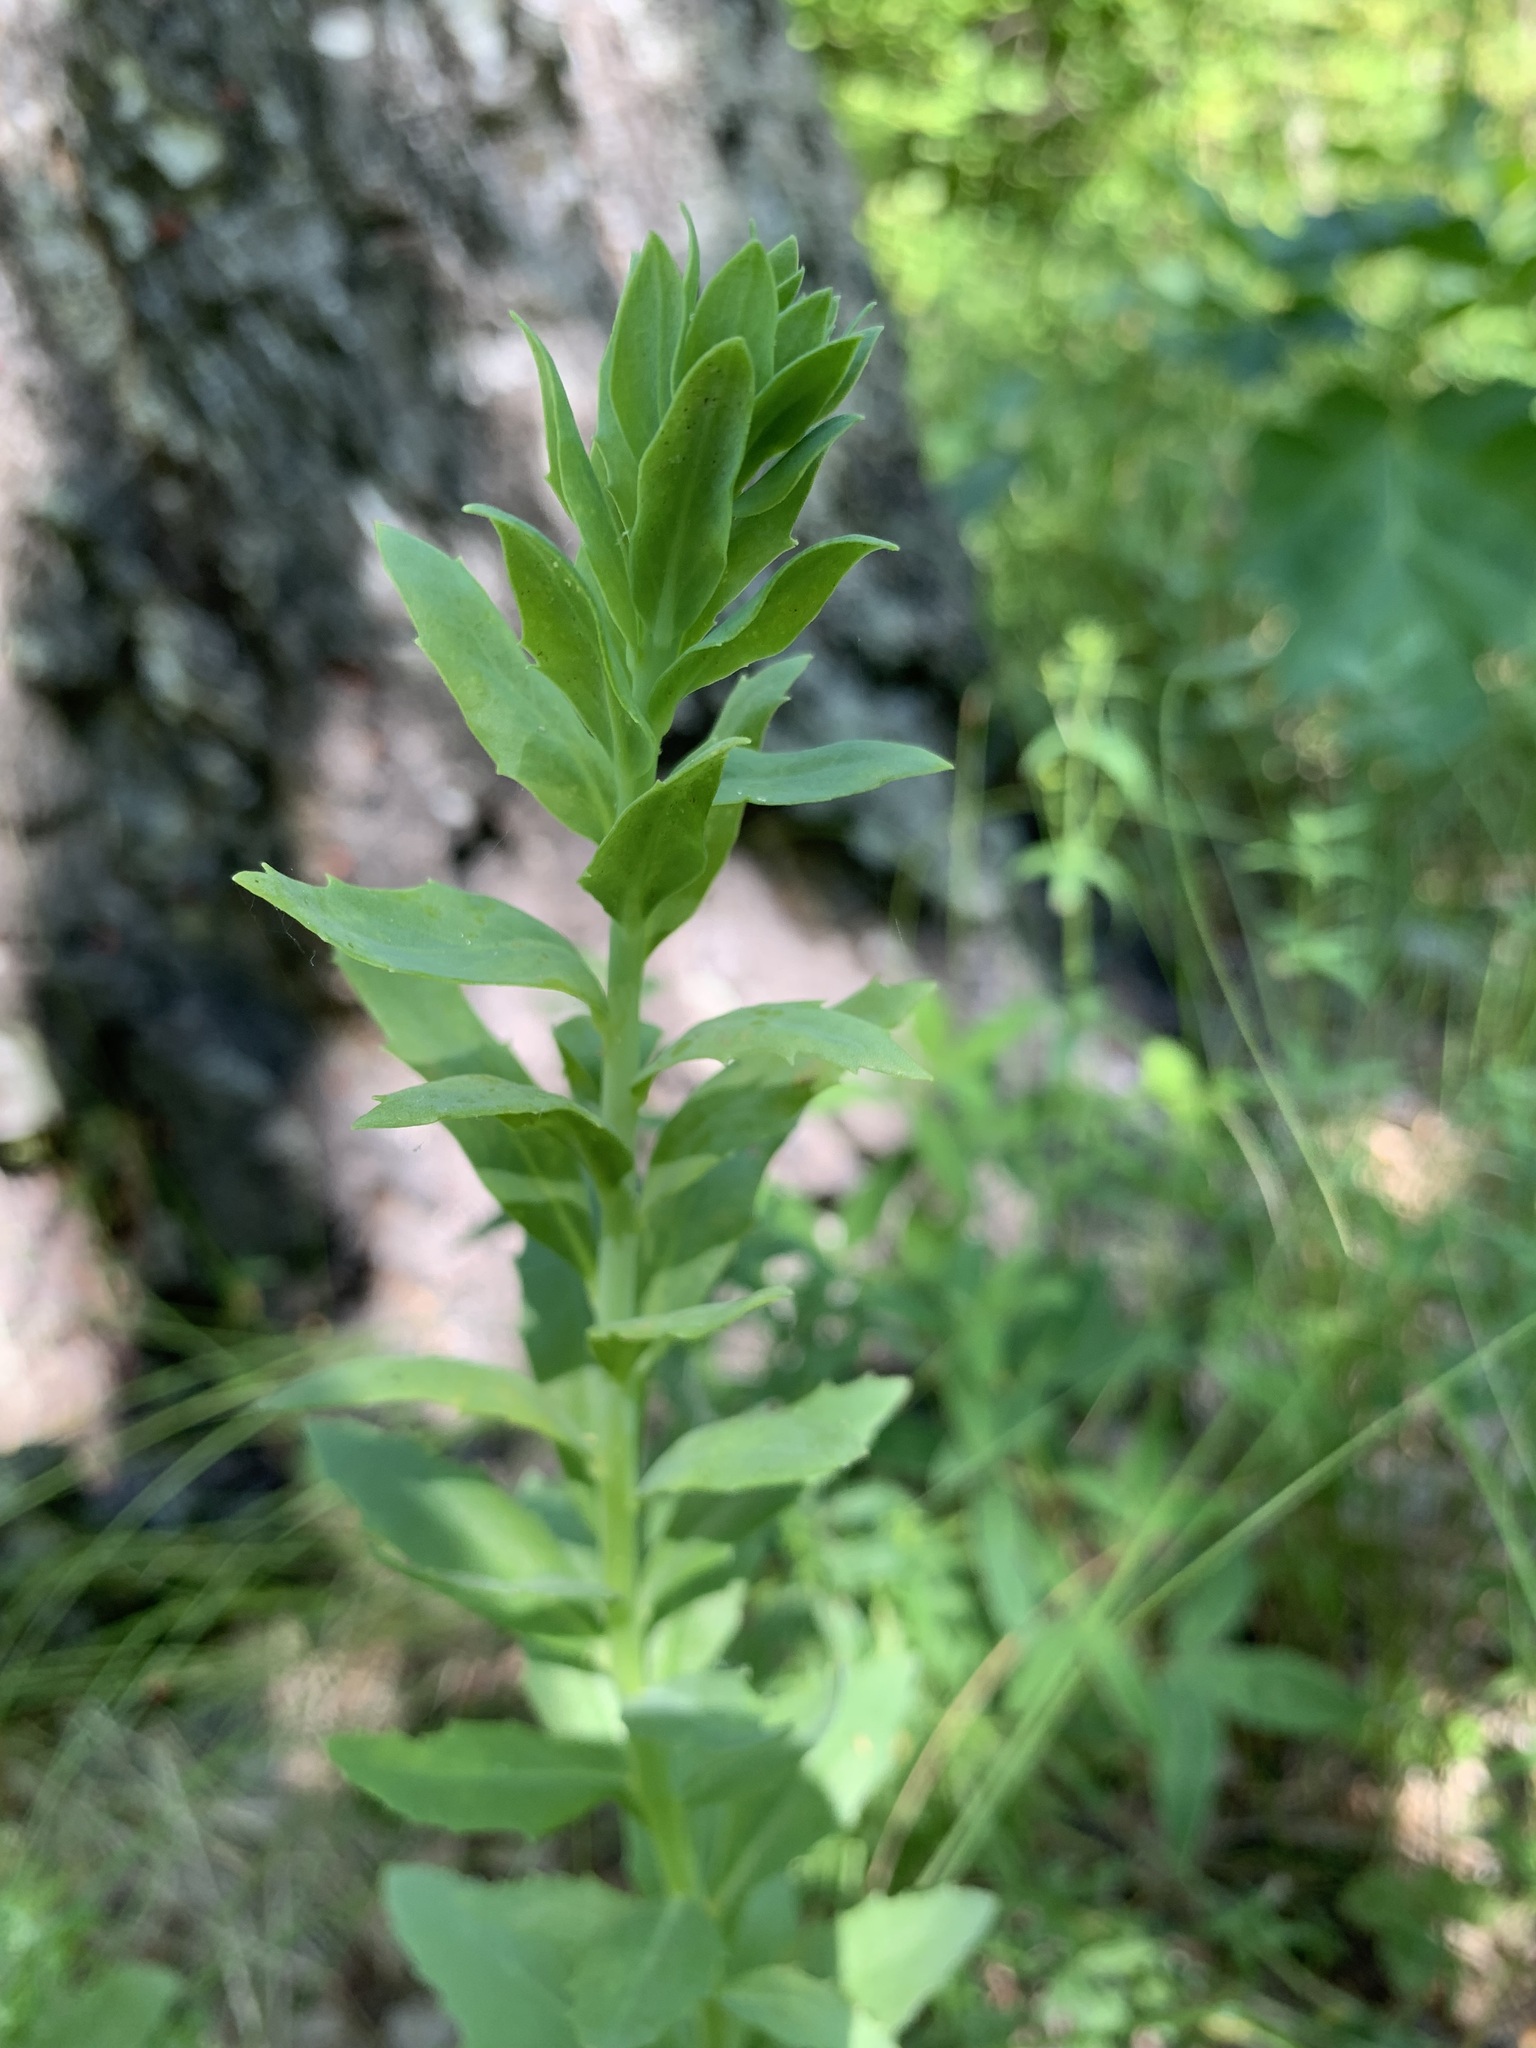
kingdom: Plantae
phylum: Tracheophyta
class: Magnoliopsida
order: Saxifragales
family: Crassulaceae
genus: Hylotelephium
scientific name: Hylotelephium telephium
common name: Live-forever
